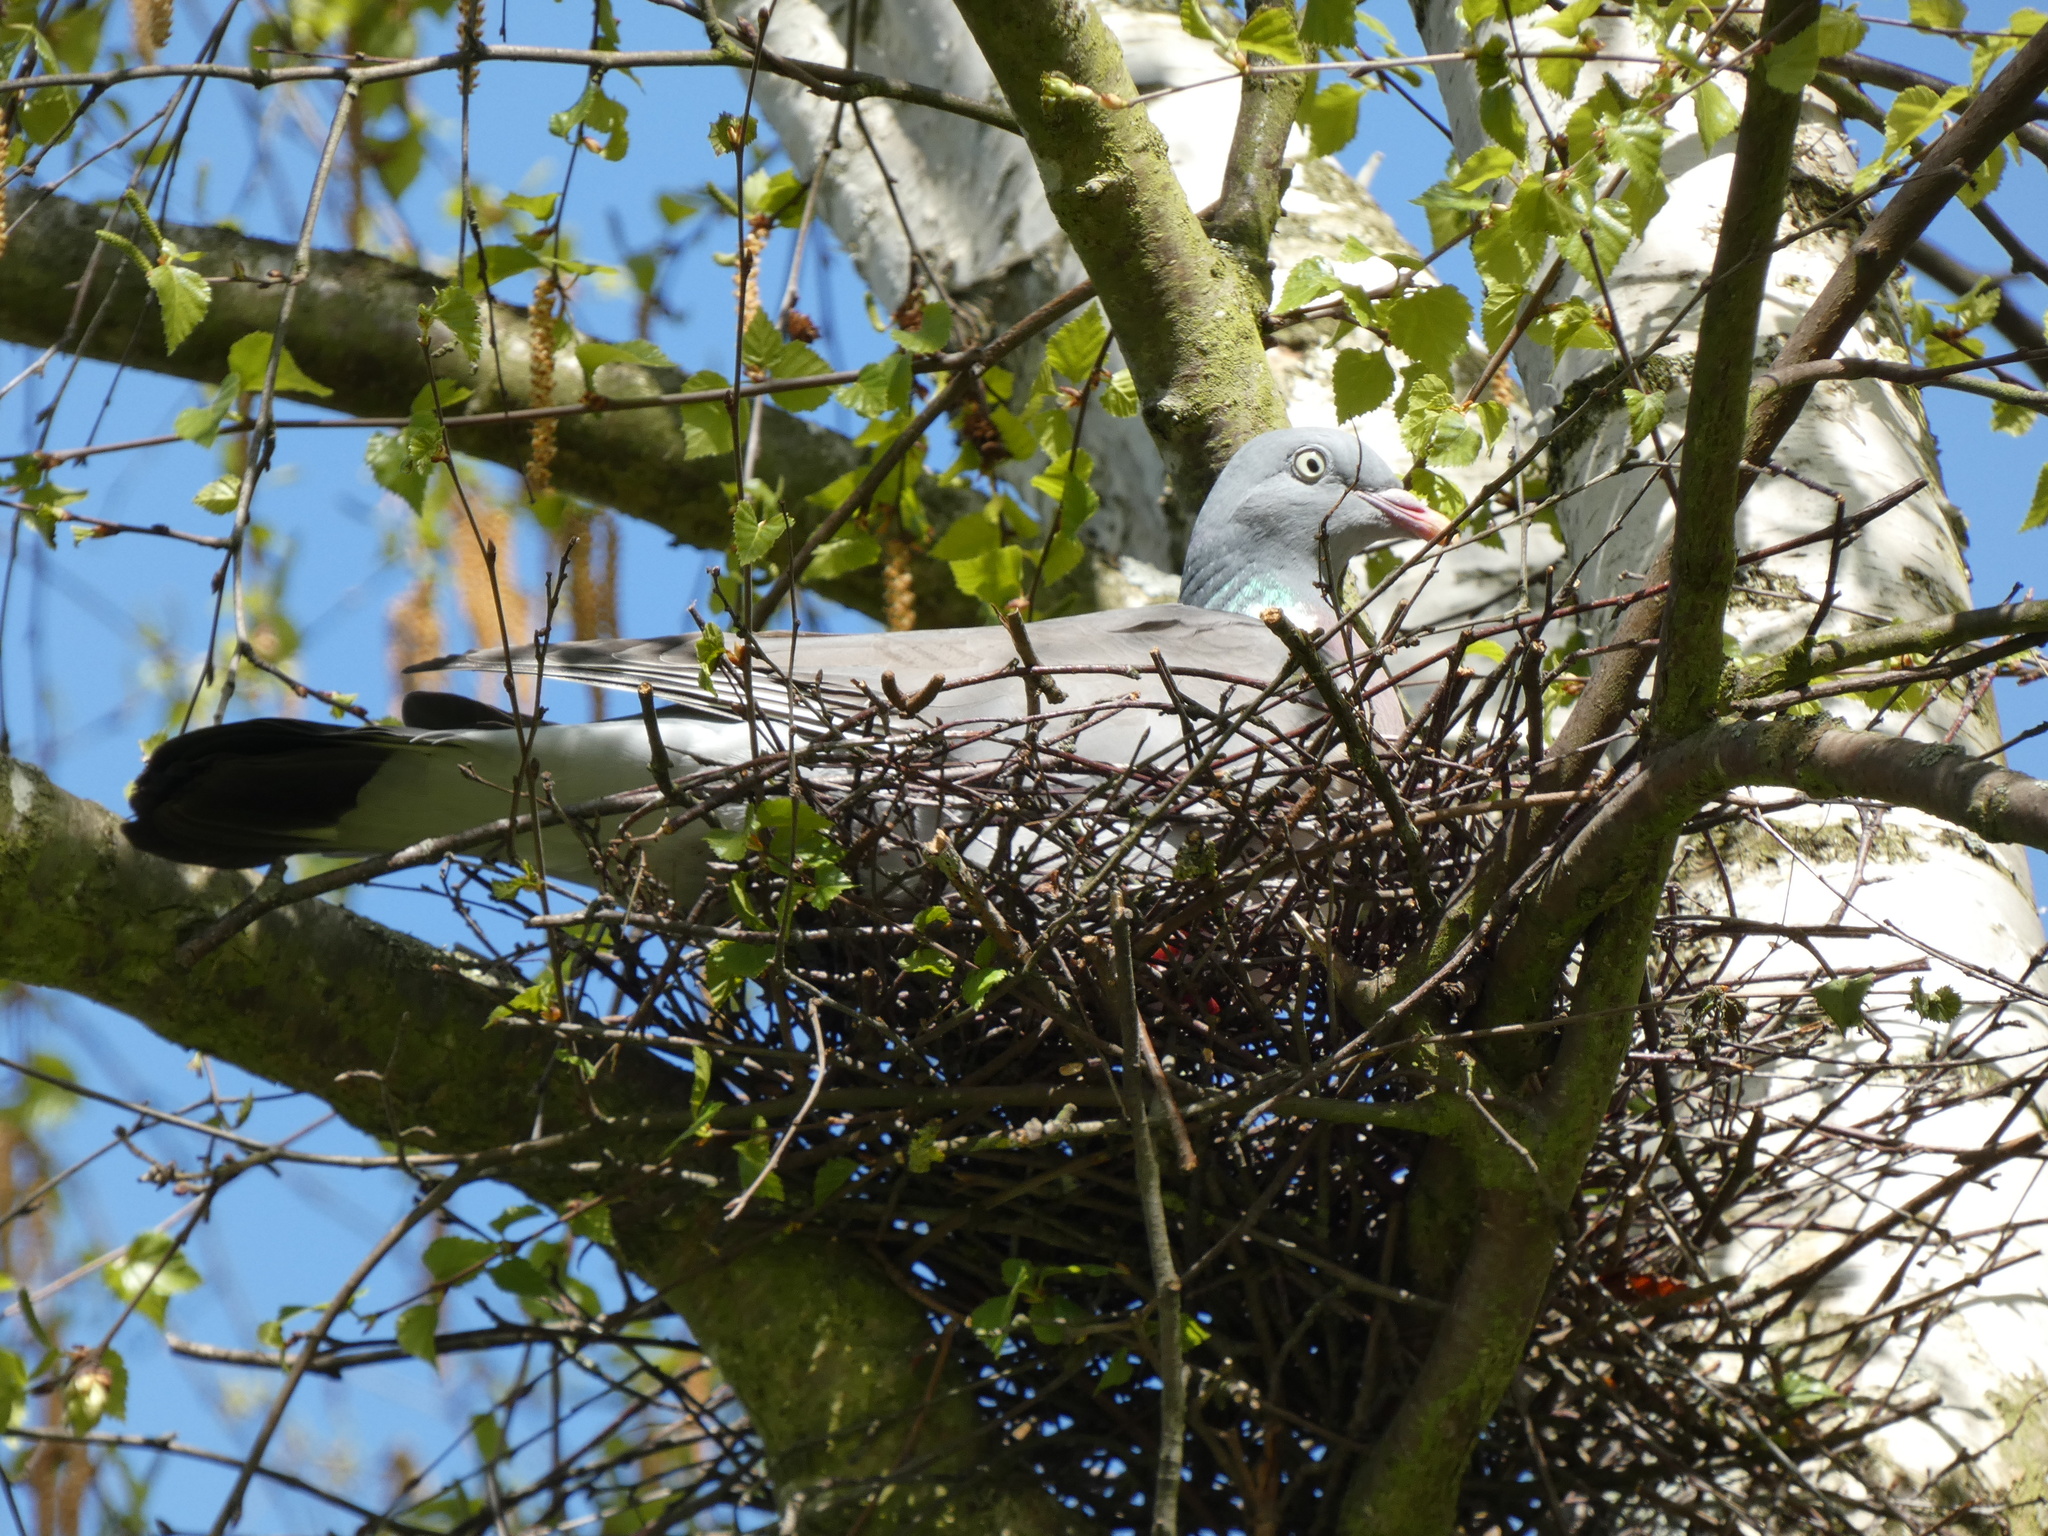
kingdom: Animalia
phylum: Chordata
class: Aves
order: Columbiformes
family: Columbidae
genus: Columba
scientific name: Columba palumbus
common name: Common wood pigeon
